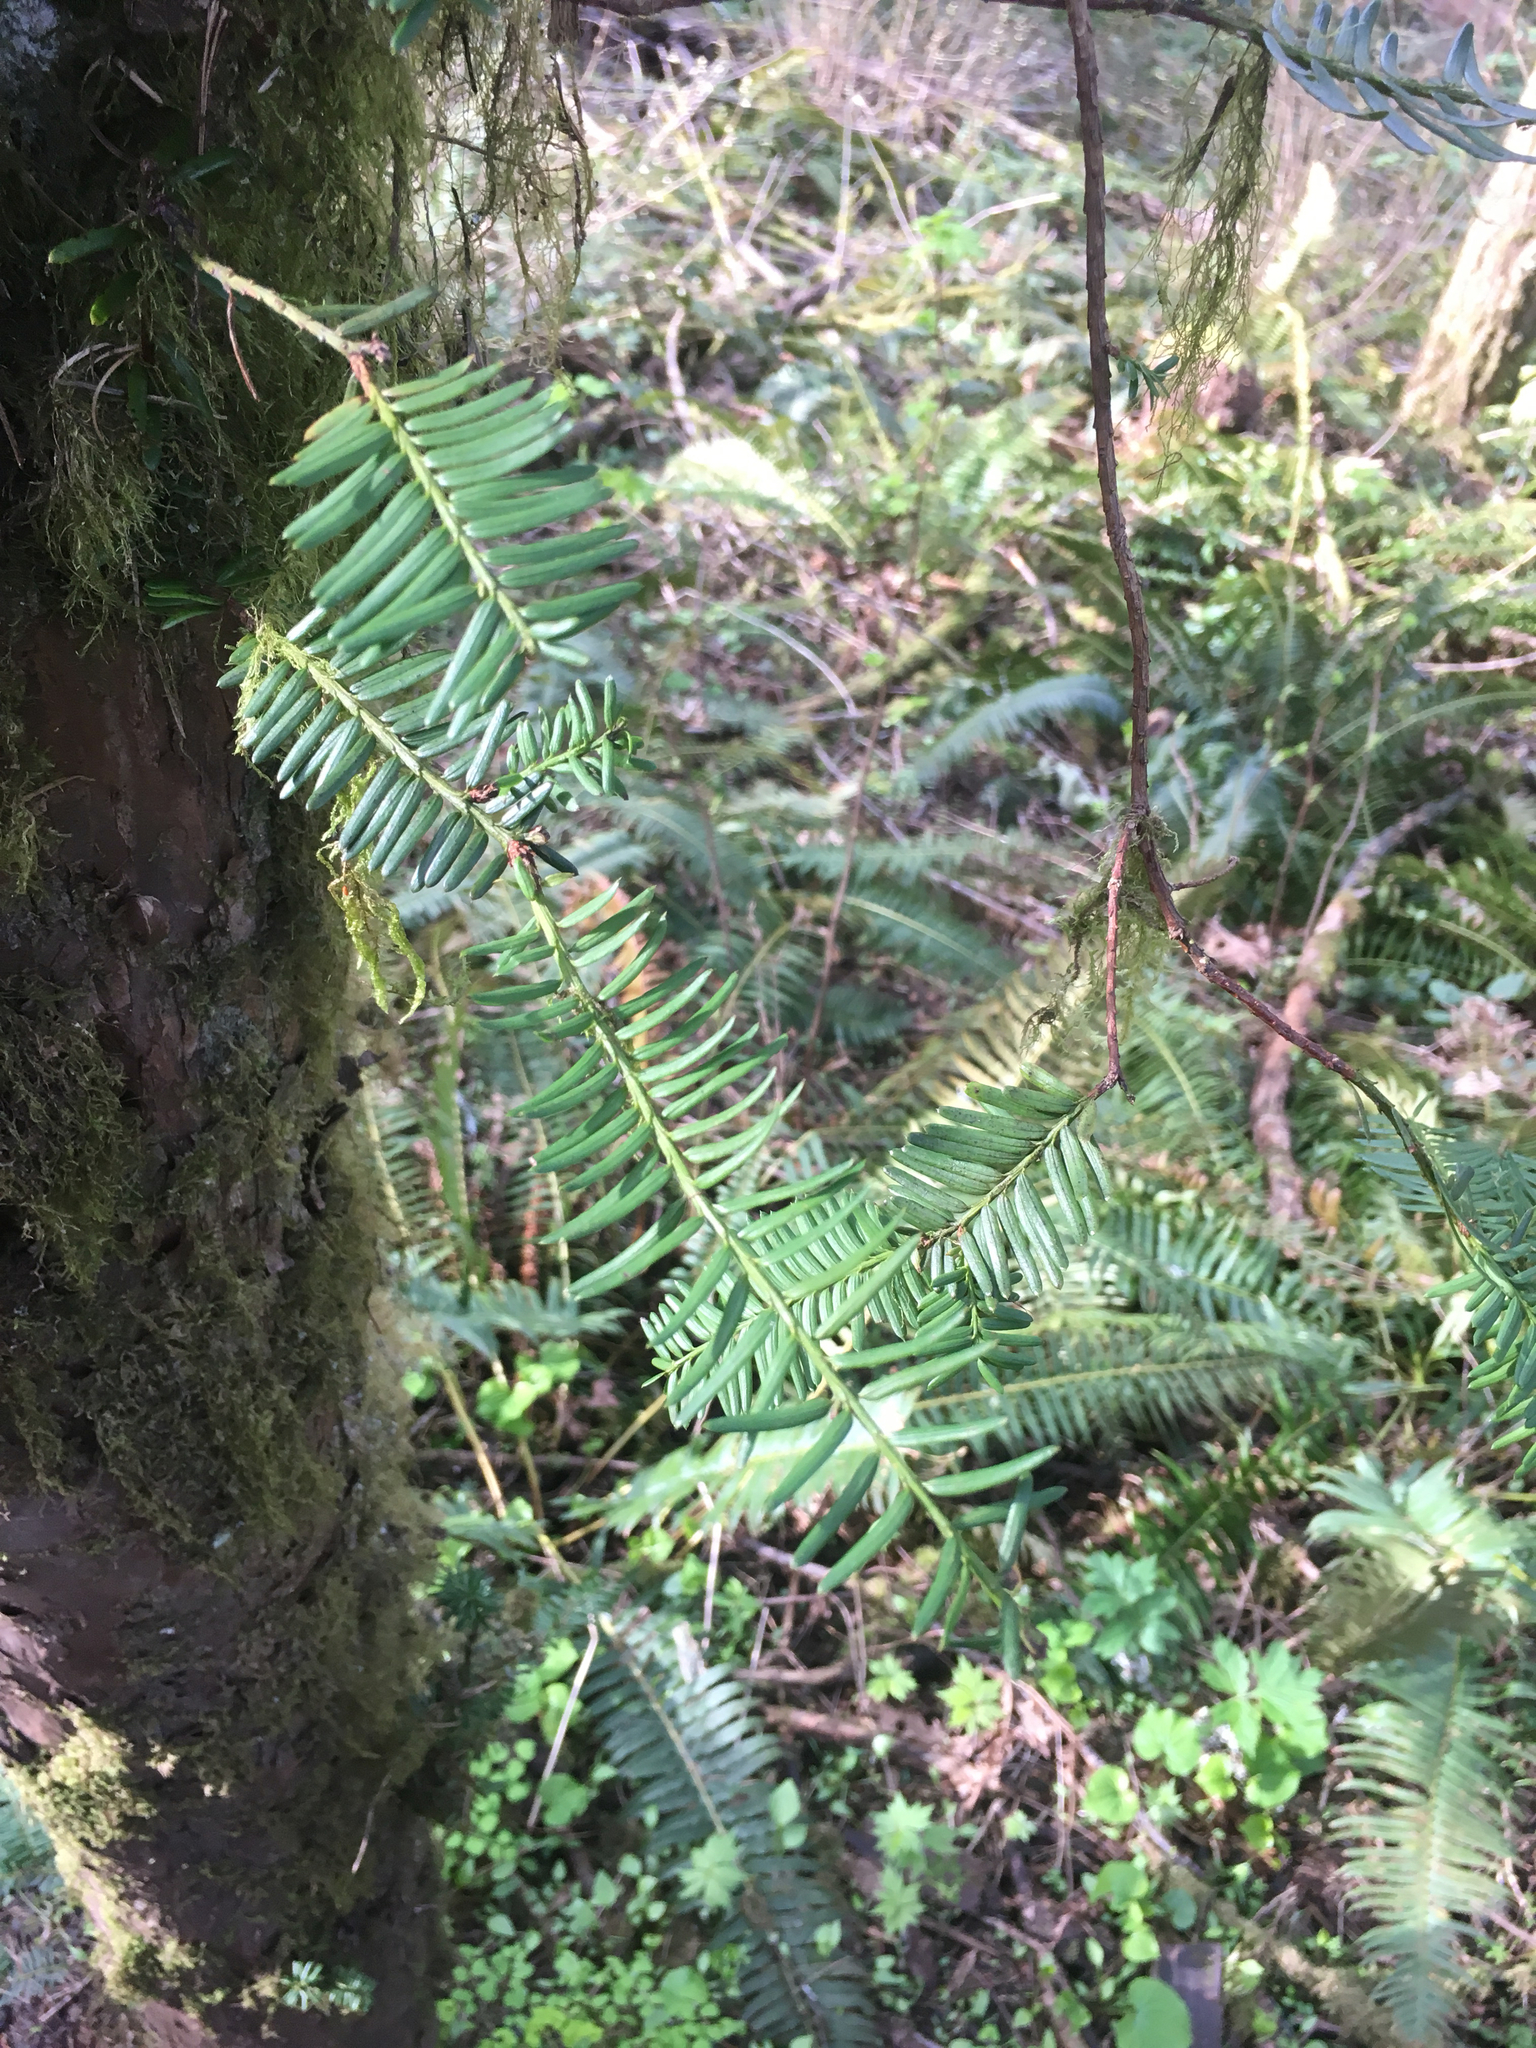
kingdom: Plantae
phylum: Tracheophyta
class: Pinopsida
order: Pinales
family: Taxaceae
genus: Taxus
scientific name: Taxus brevifolia
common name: Pacific yew
